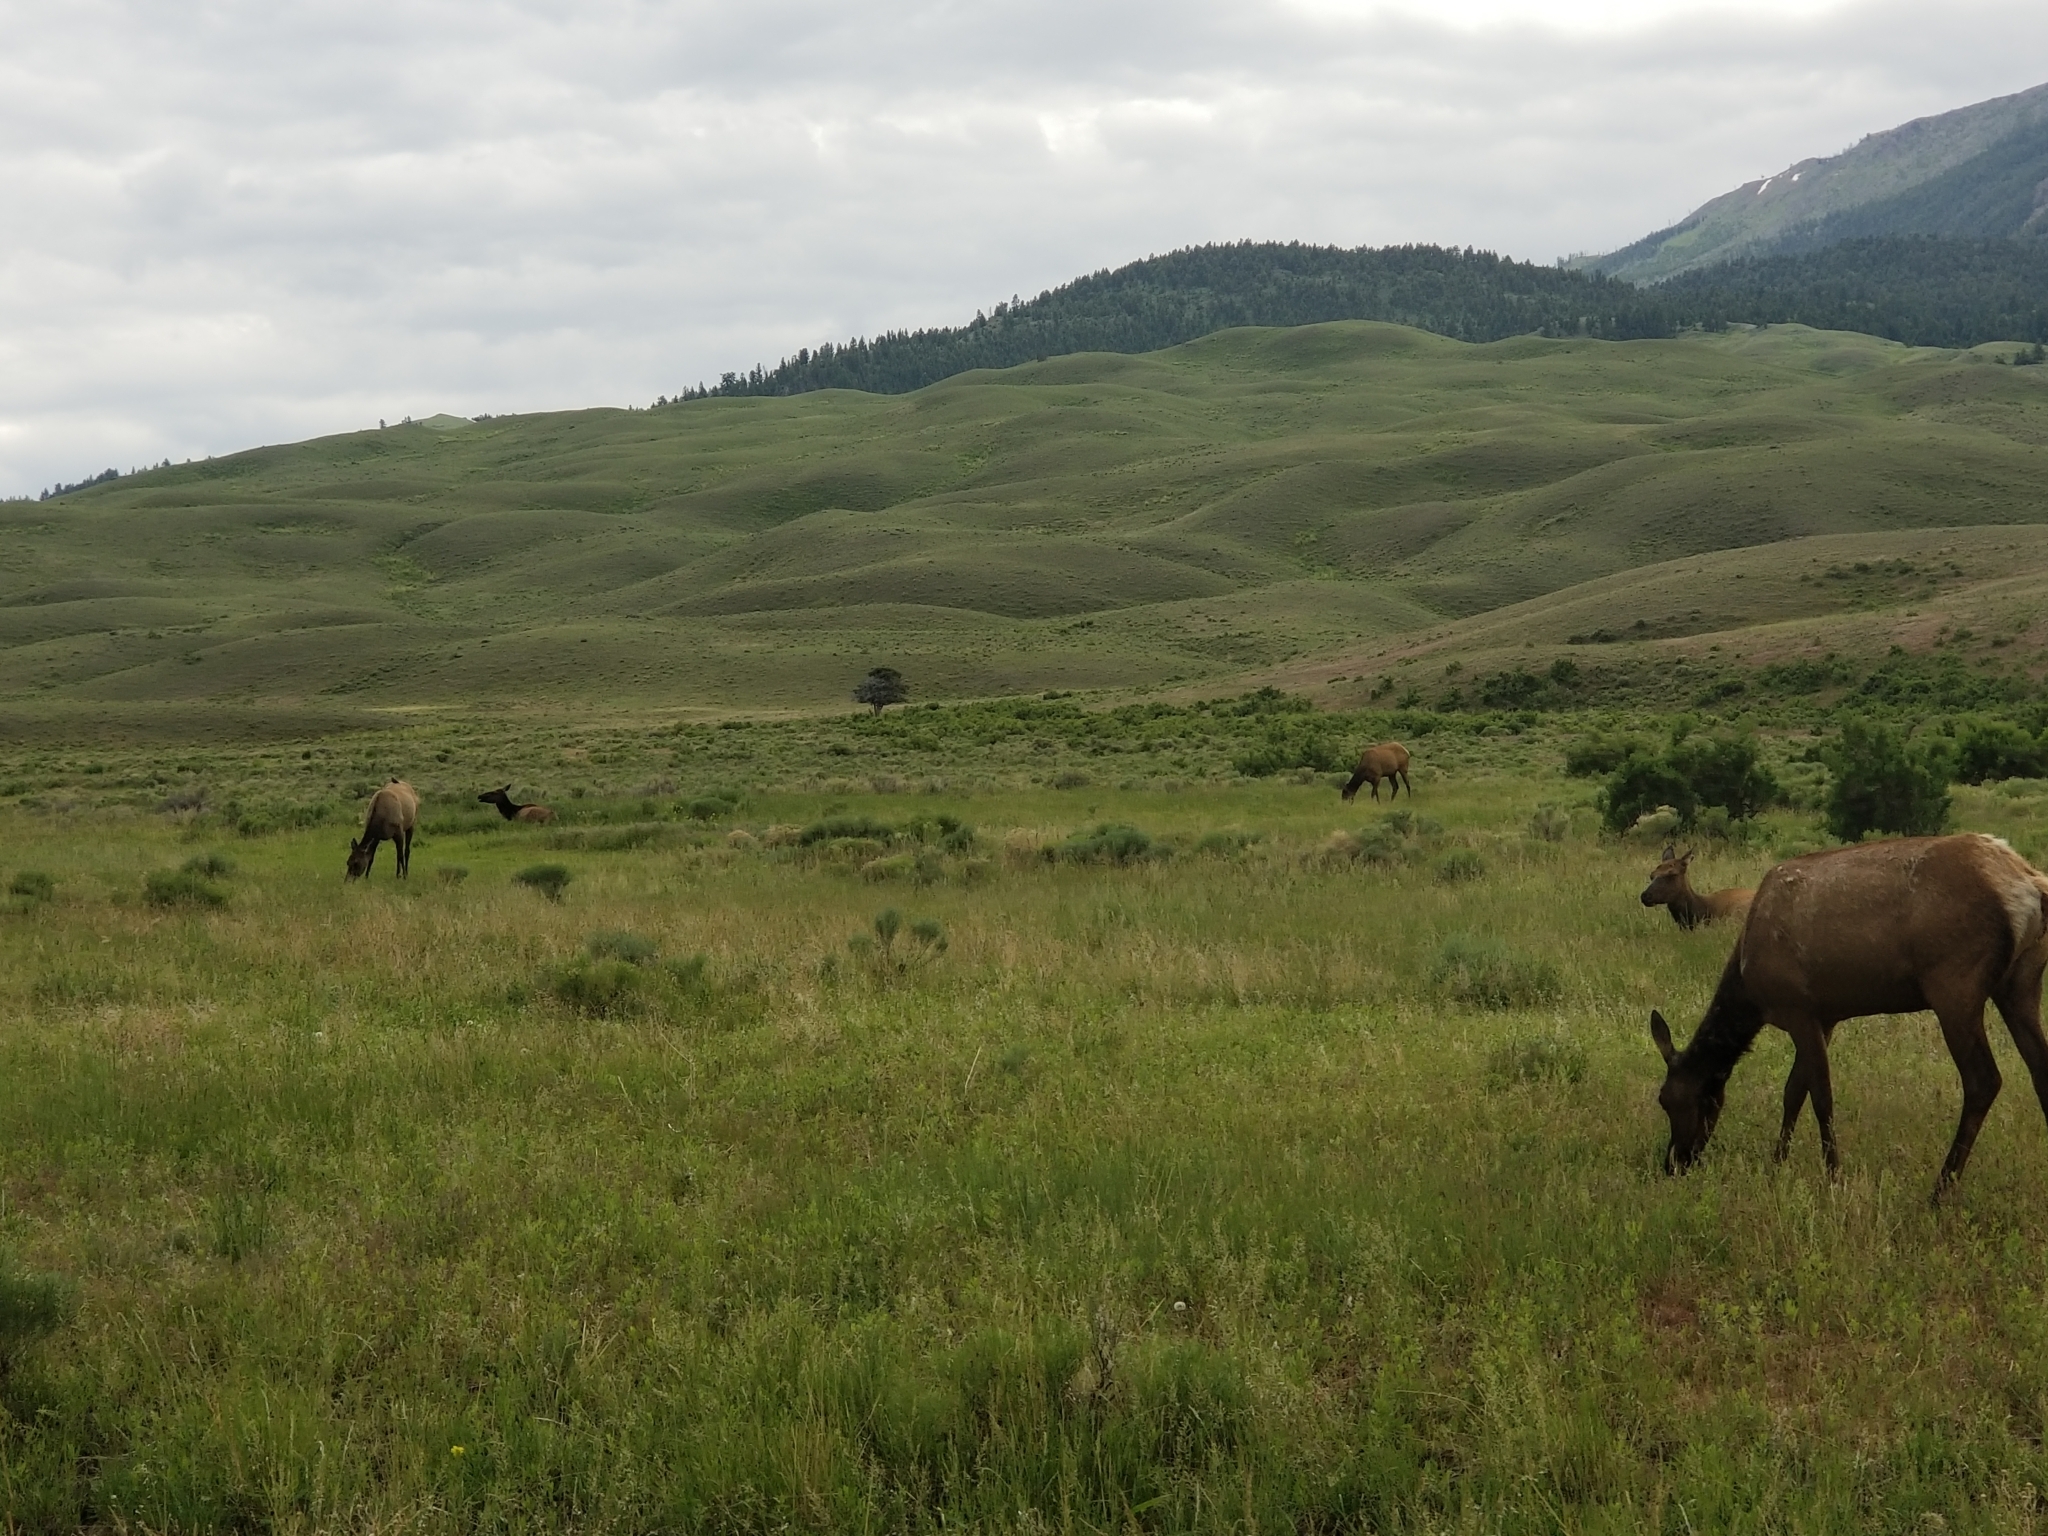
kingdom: Animalia
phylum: Chordata
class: Mammalia
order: Artiodactyla
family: Cervidae
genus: Cervus
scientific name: Cervus elaphus
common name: Red deer
